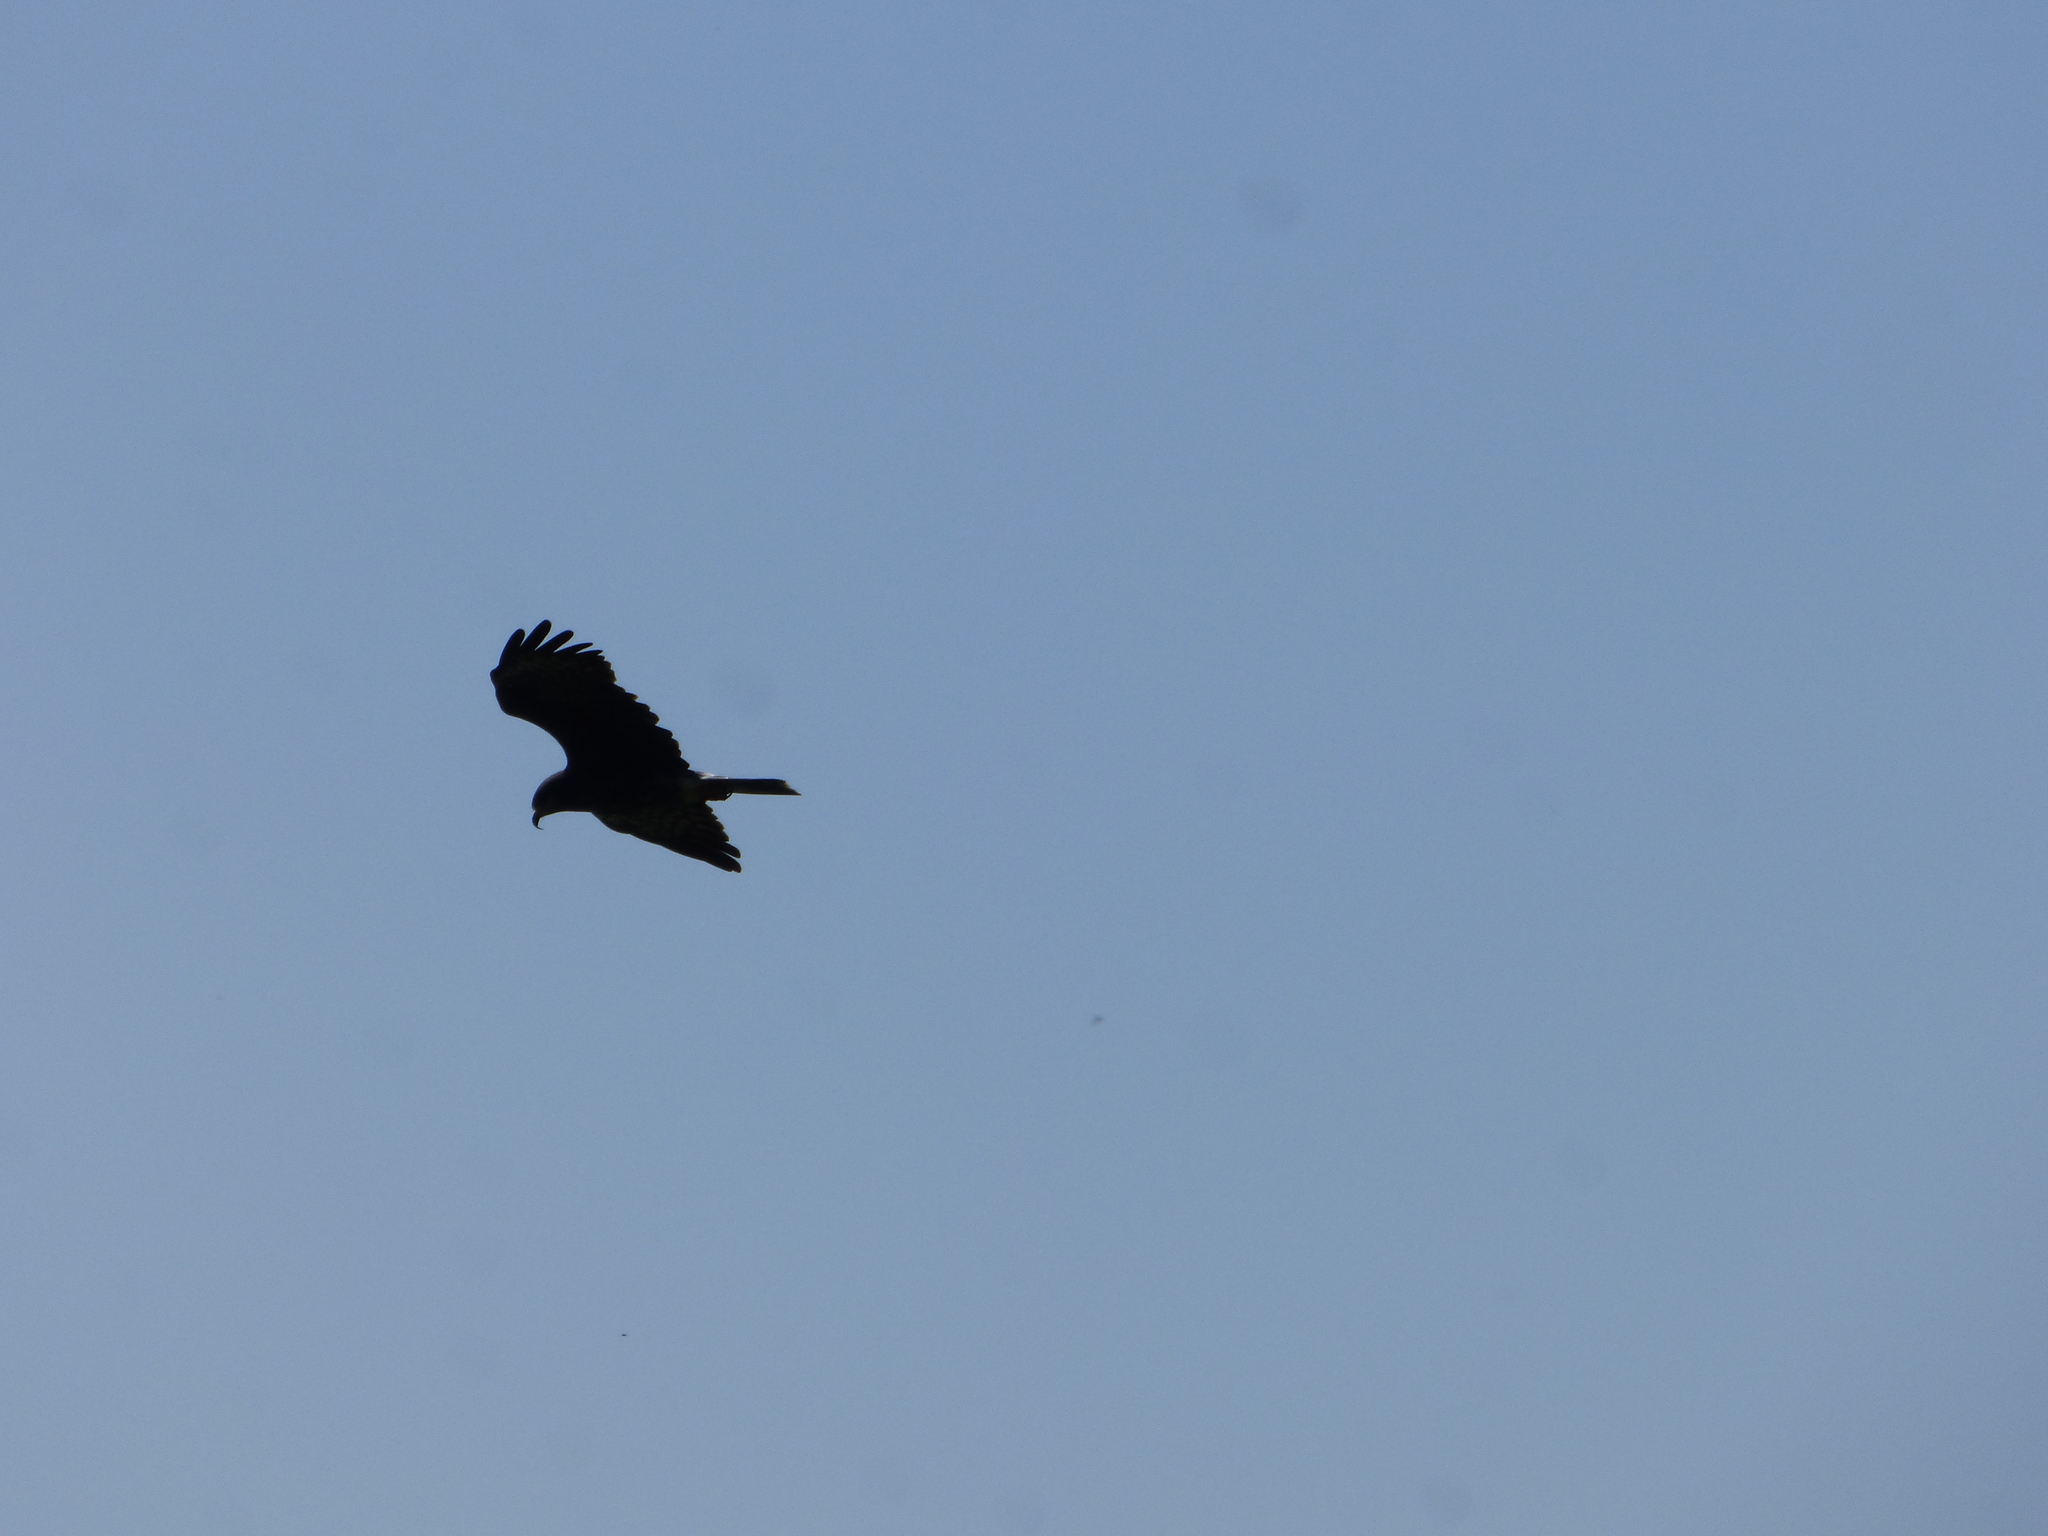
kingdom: Animalia
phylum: Chordata
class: Aves
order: Accipitriformes
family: Accipitridae
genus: Rostrhamus
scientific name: Rostrhamus sociabilis
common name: Snail kite
